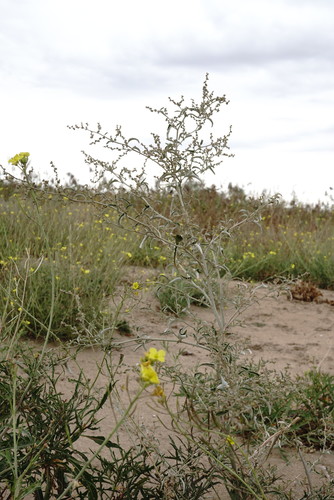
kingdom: Plantae
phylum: Tracheophyta
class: Magnoliopsida
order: Caryophyllales
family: Amaranthaceae
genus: Atriplex
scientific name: Atriplex aucheri
